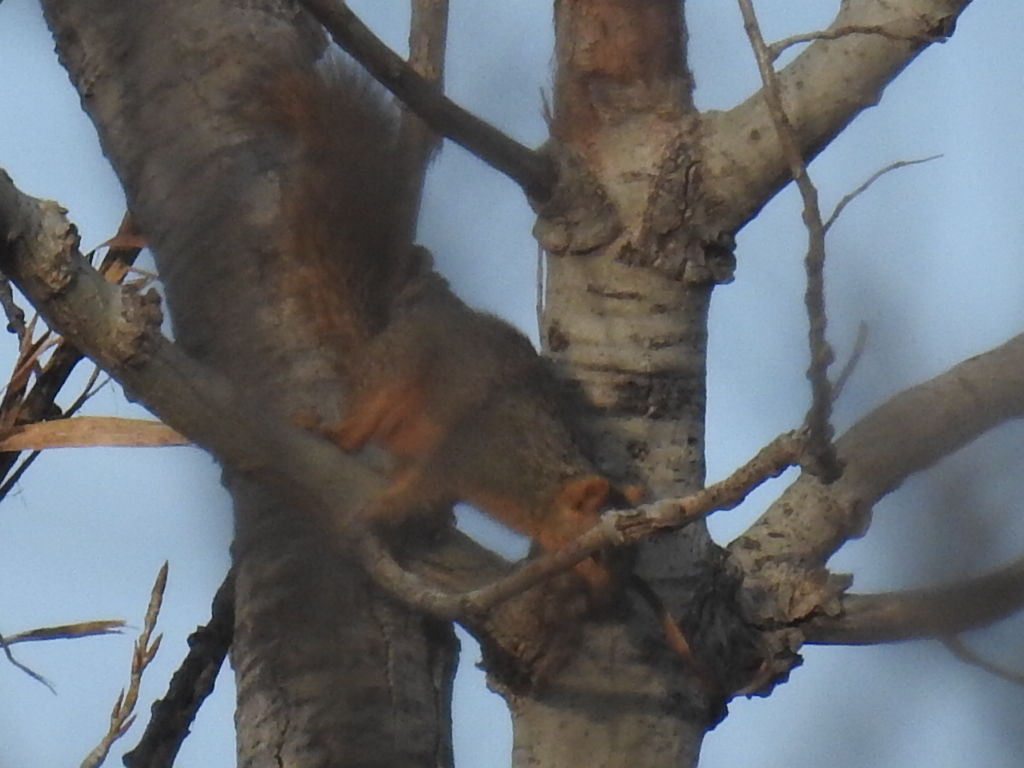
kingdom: Animalia
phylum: Chordata
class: Mammalia
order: Rodentia
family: Sciuridae
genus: Sciurus
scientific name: Sciurus niger
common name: Fox squirrel
